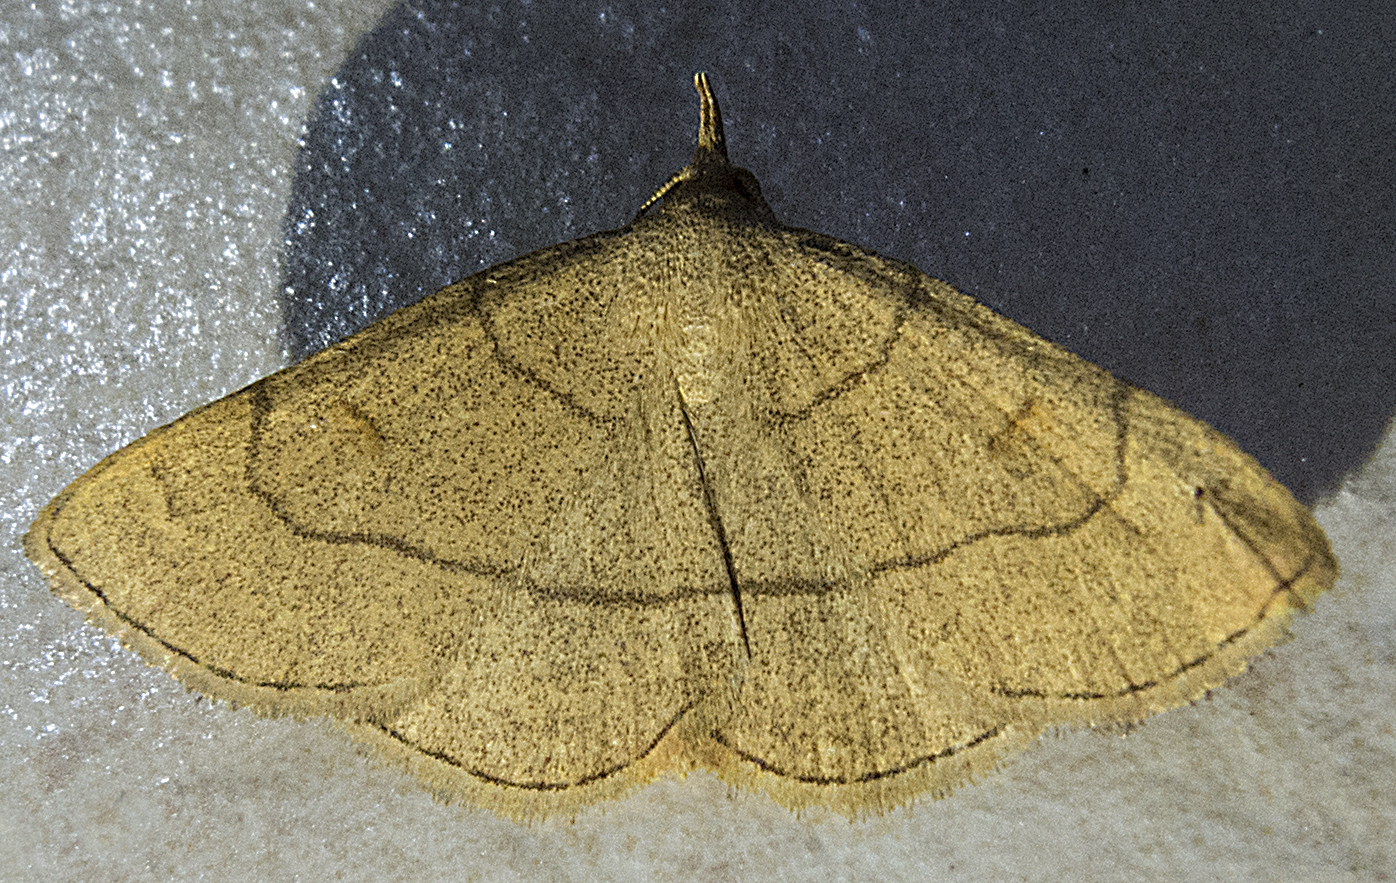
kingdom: Animalia
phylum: Arthropoda
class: Insecta
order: Lepidoptera
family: Erebidae
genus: Paracolax
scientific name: Paracolax tristalis
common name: Clay fan-foot
